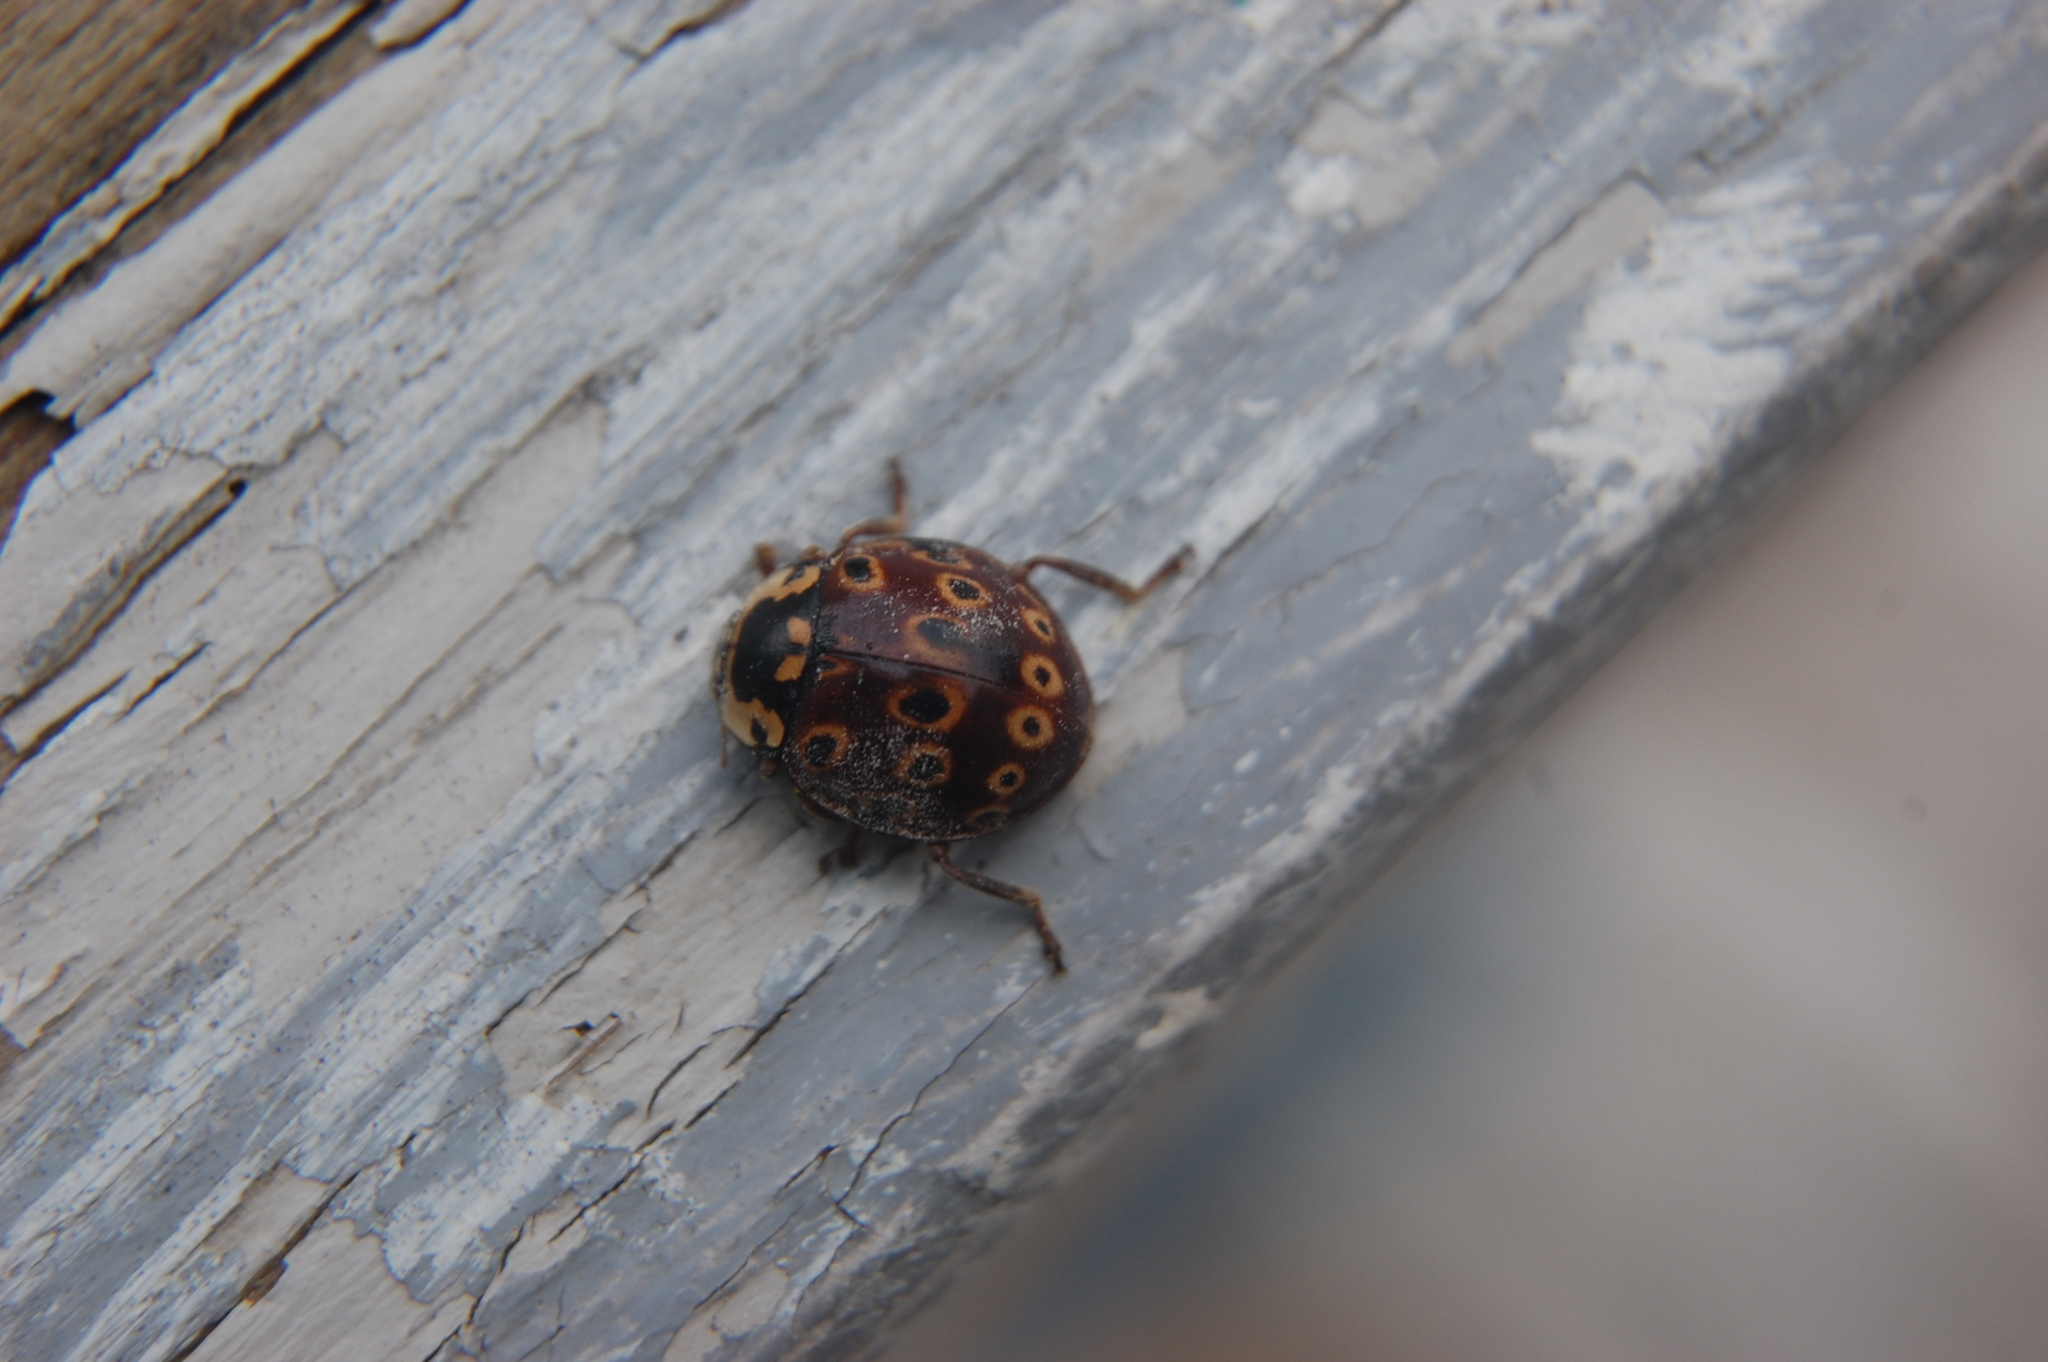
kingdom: Animalia
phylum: Arthropoda
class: Insecta
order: Coleoptera
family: Coccinellidae
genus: Anatis
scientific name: Anatis mali
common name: Eye-spotted lady beetle
